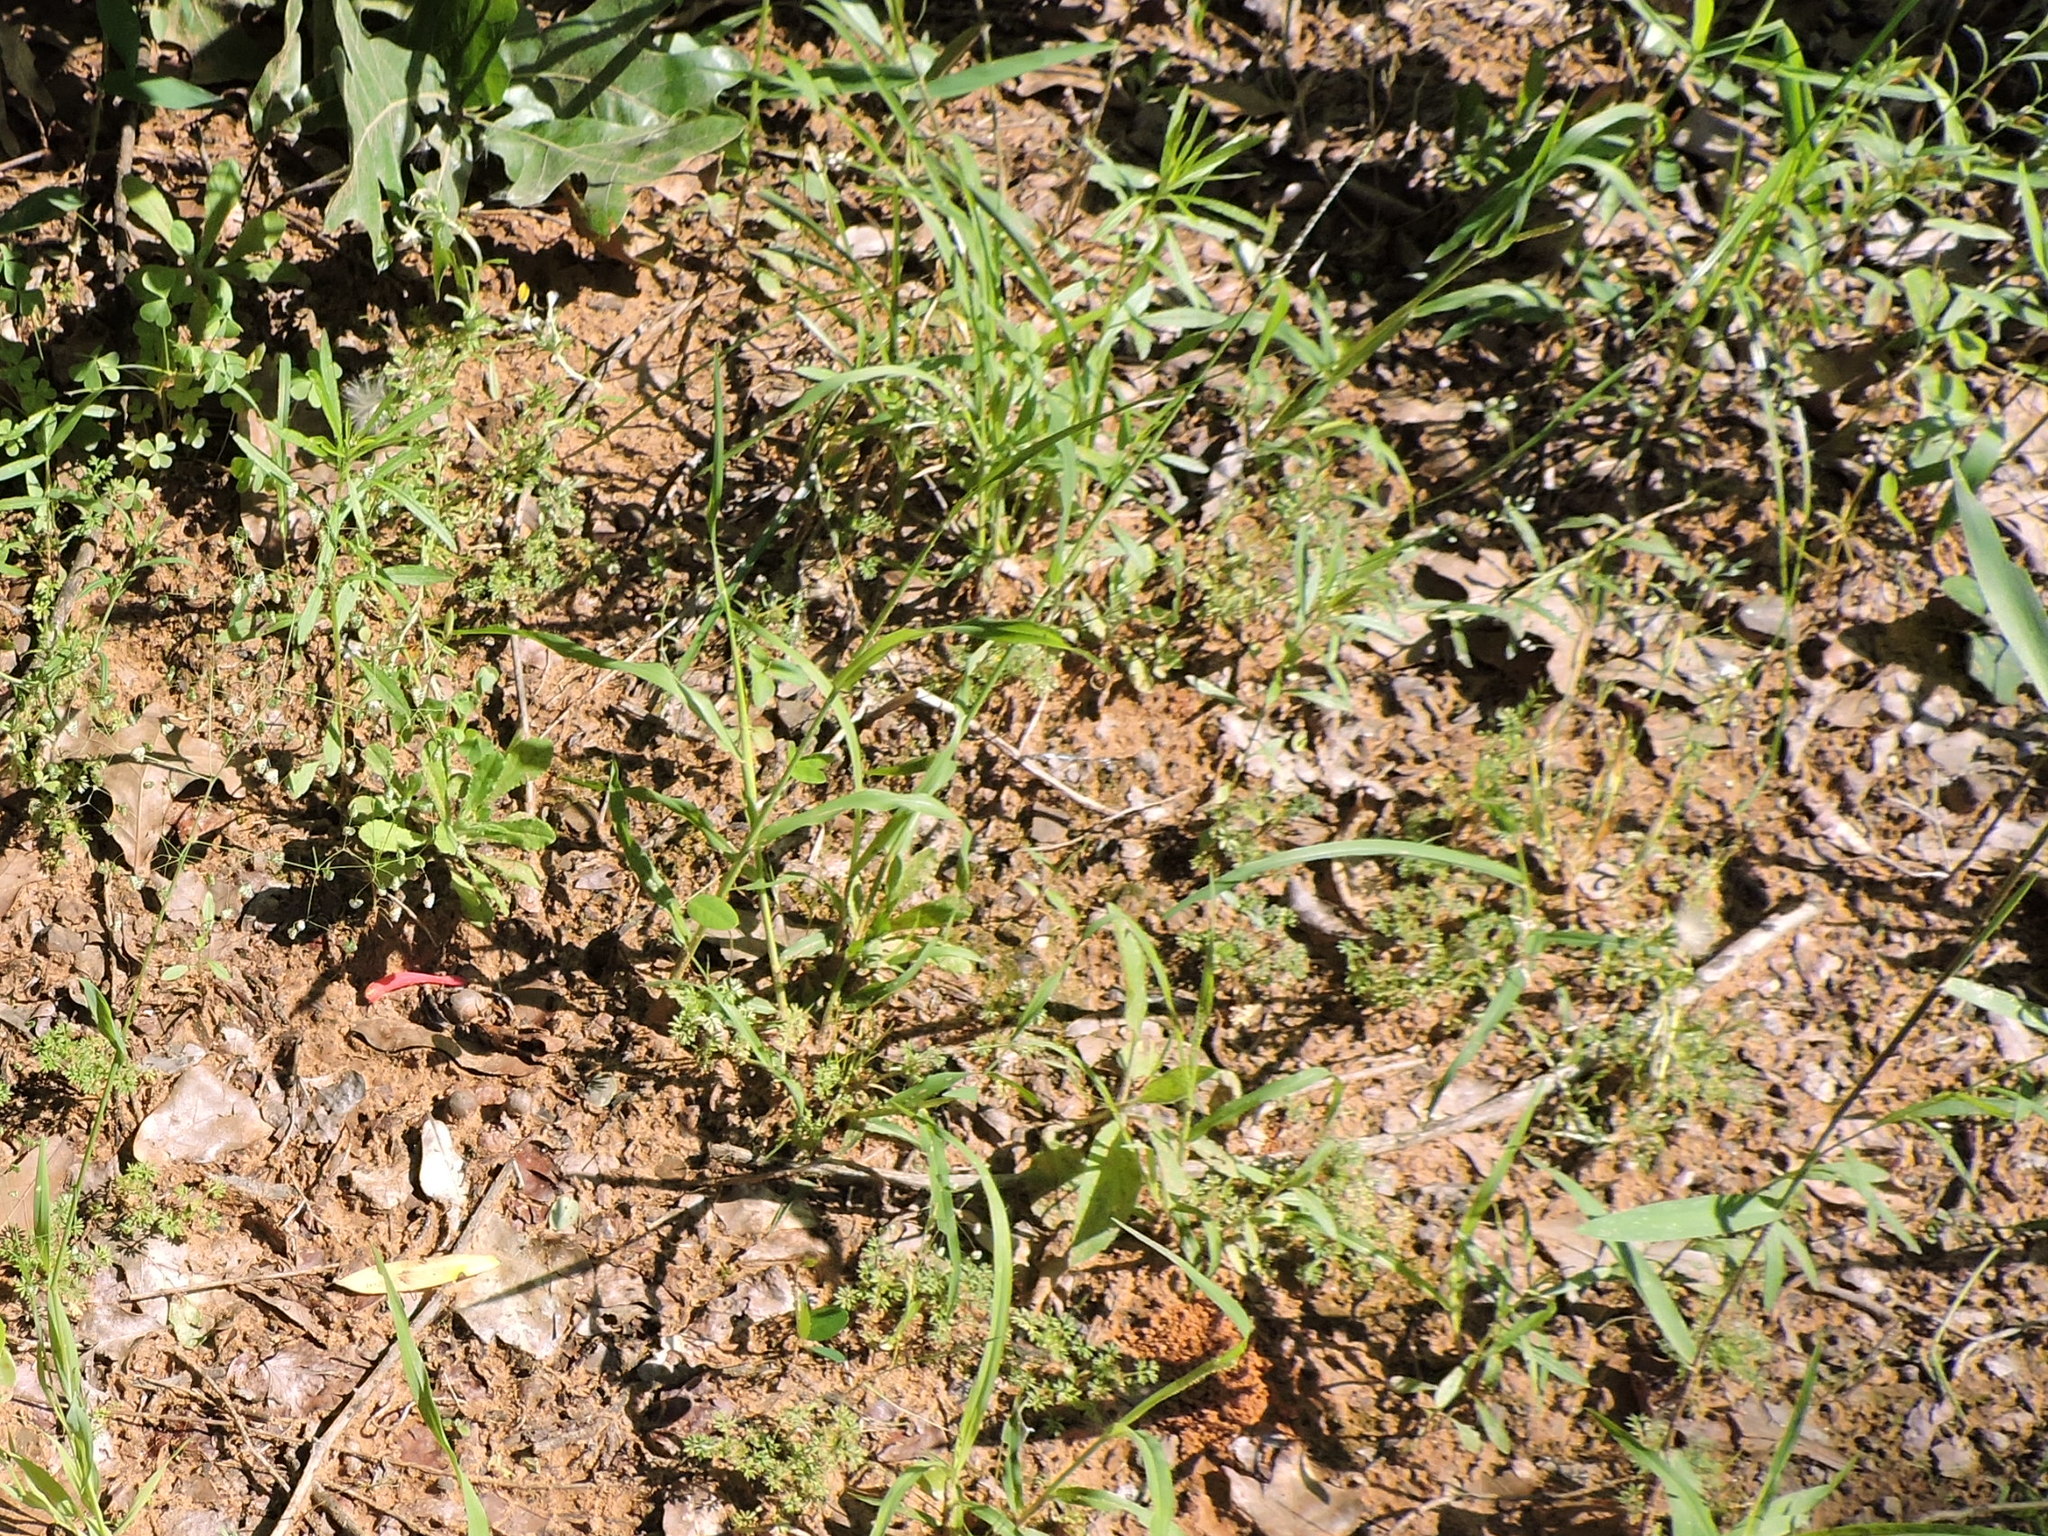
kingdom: Plantae
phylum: Tracheophyta
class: Liliopsida
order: Poales
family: Poaceae
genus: Briza
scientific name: Briza minor
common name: Lesser quaking-grass
